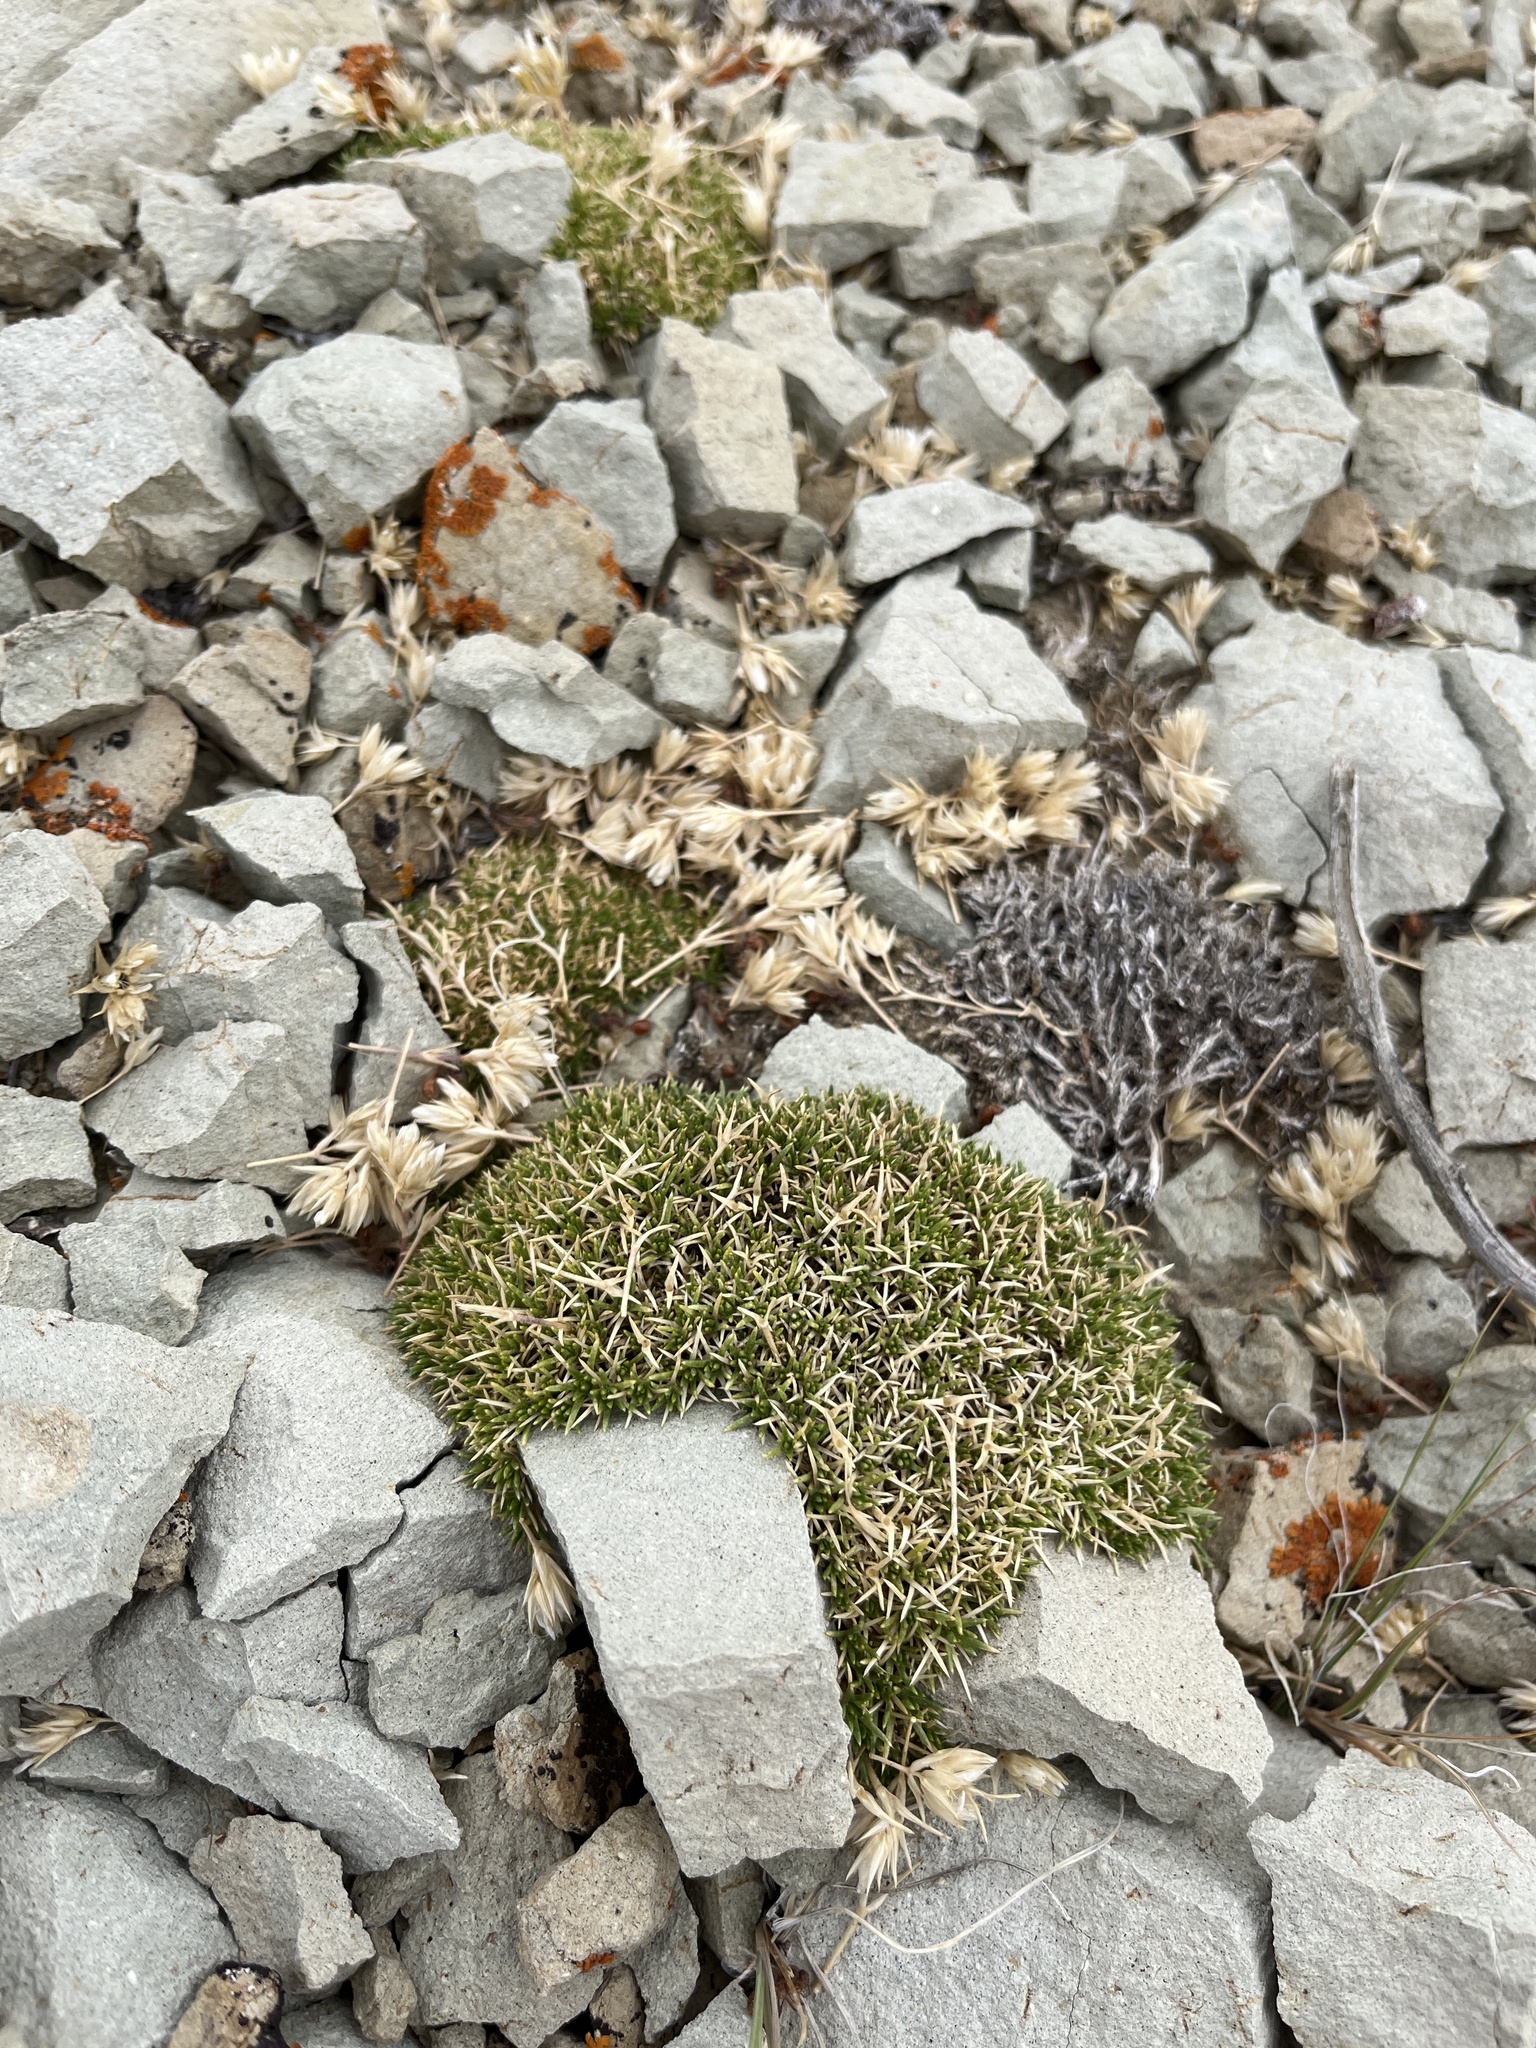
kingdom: Plantae
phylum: Tracheophyta
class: Magnoliopsida
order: Caryophyllales
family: Caryophyllaceae
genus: Eremogone
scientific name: Eremogone hookeri
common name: Hooker's sandwort
